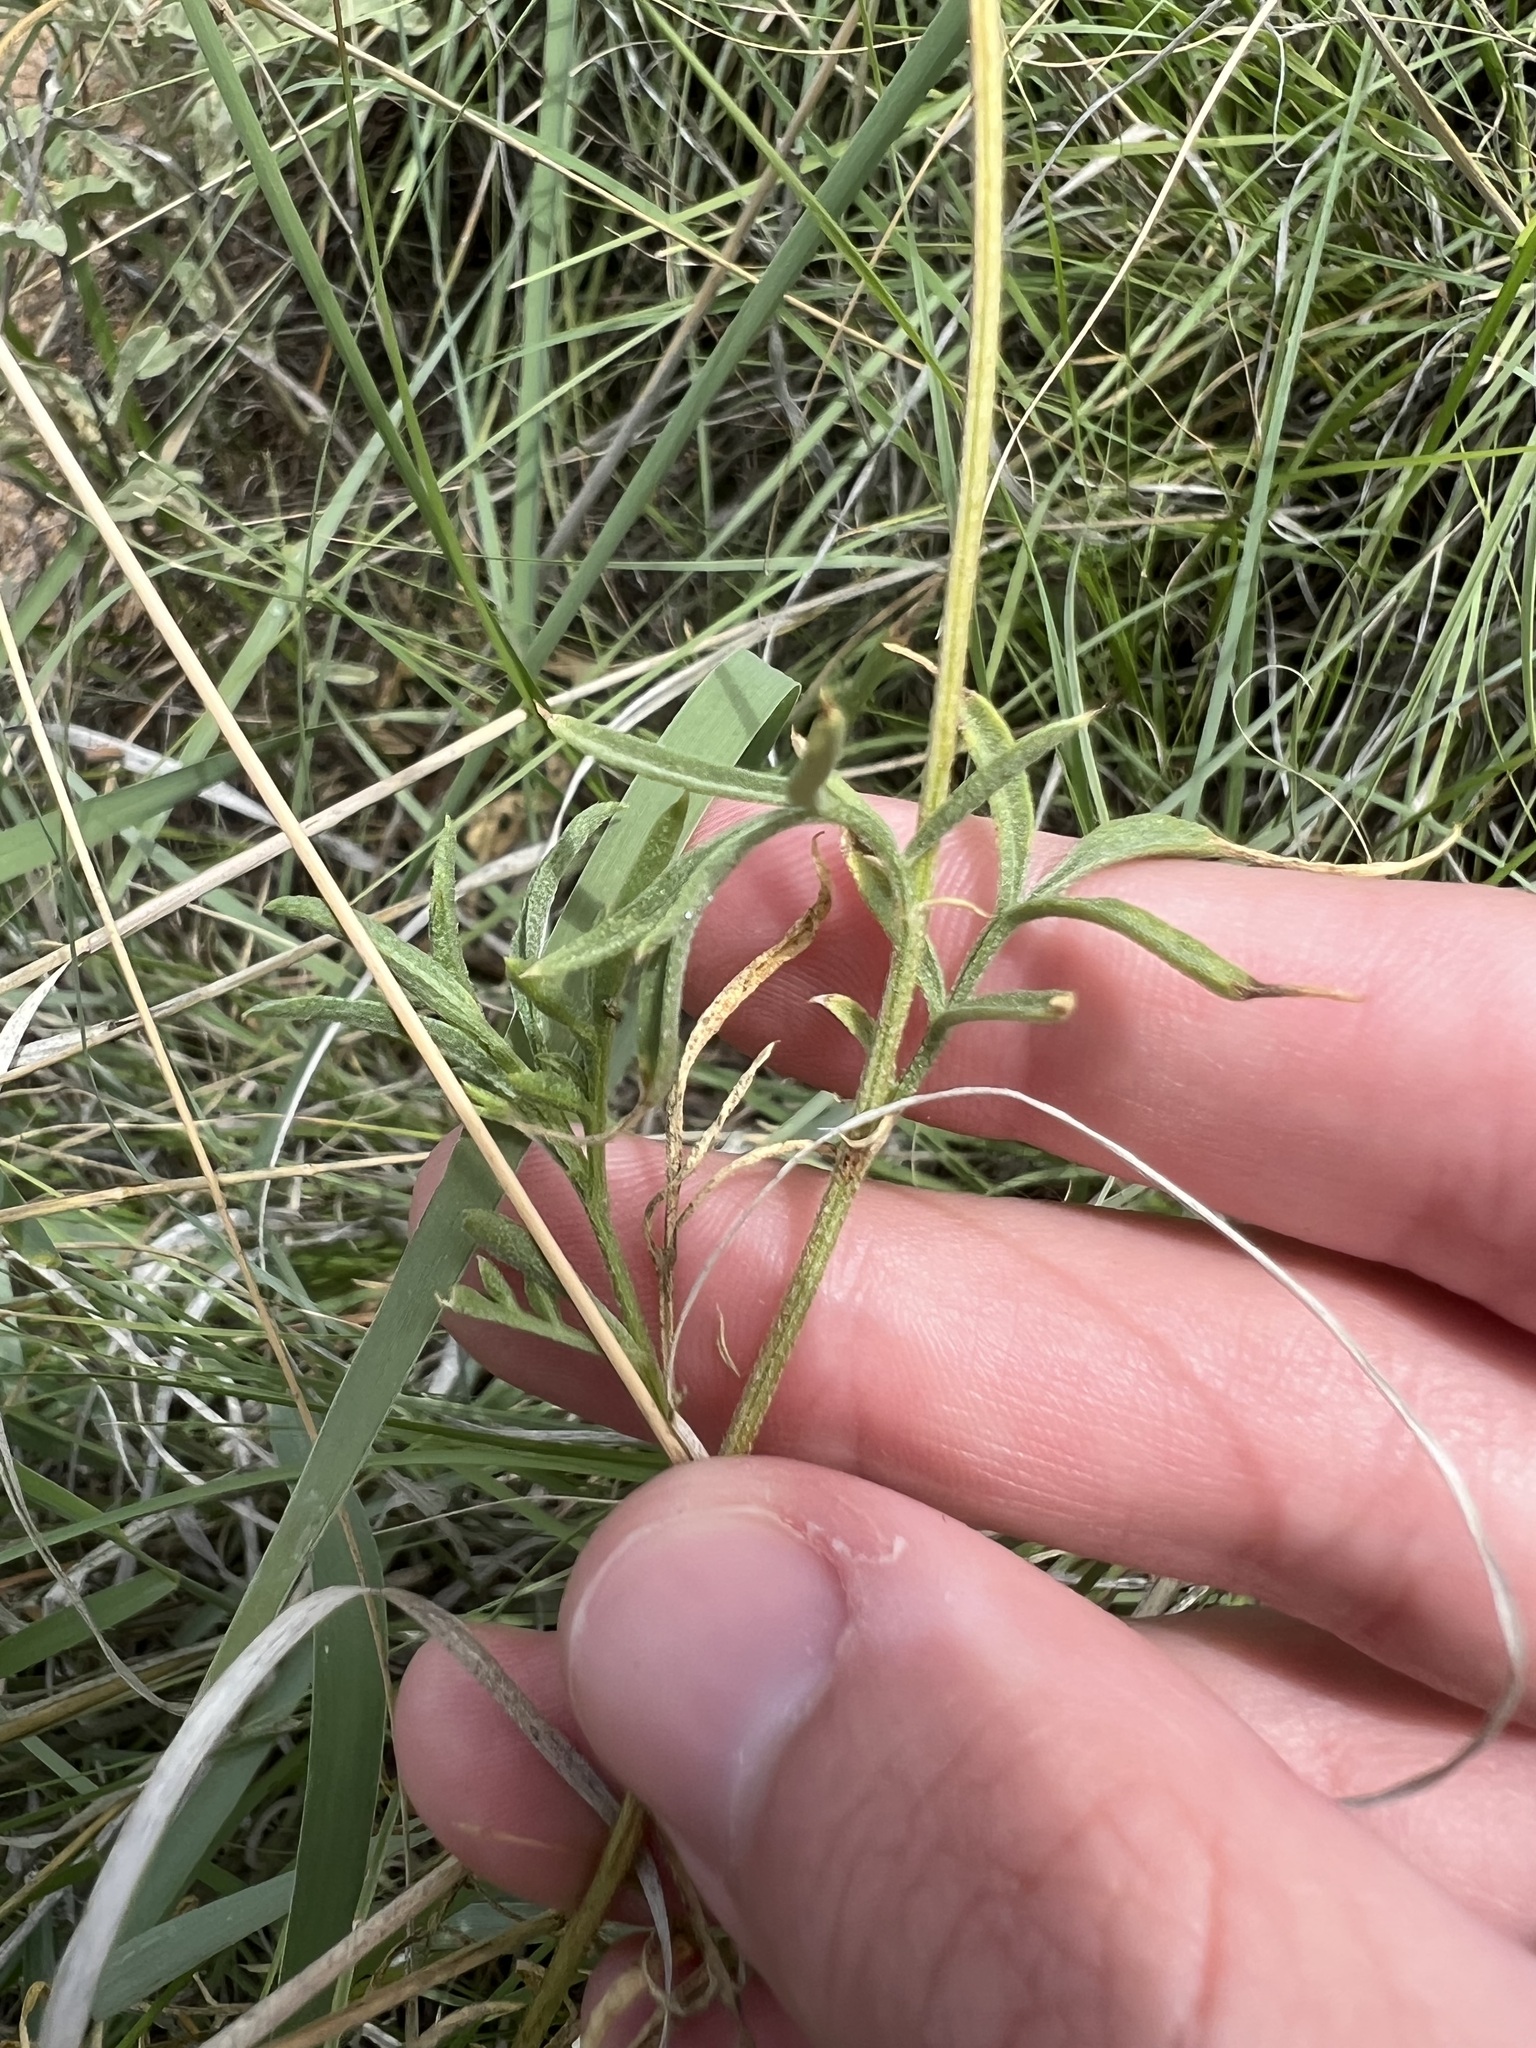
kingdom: Plantae
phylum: Tracheophyta
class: Magnoliopsida
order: Asterales
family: Asteraceae
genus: Ratibida
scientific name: Ratibida columnifera
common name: Prairie coneflower
